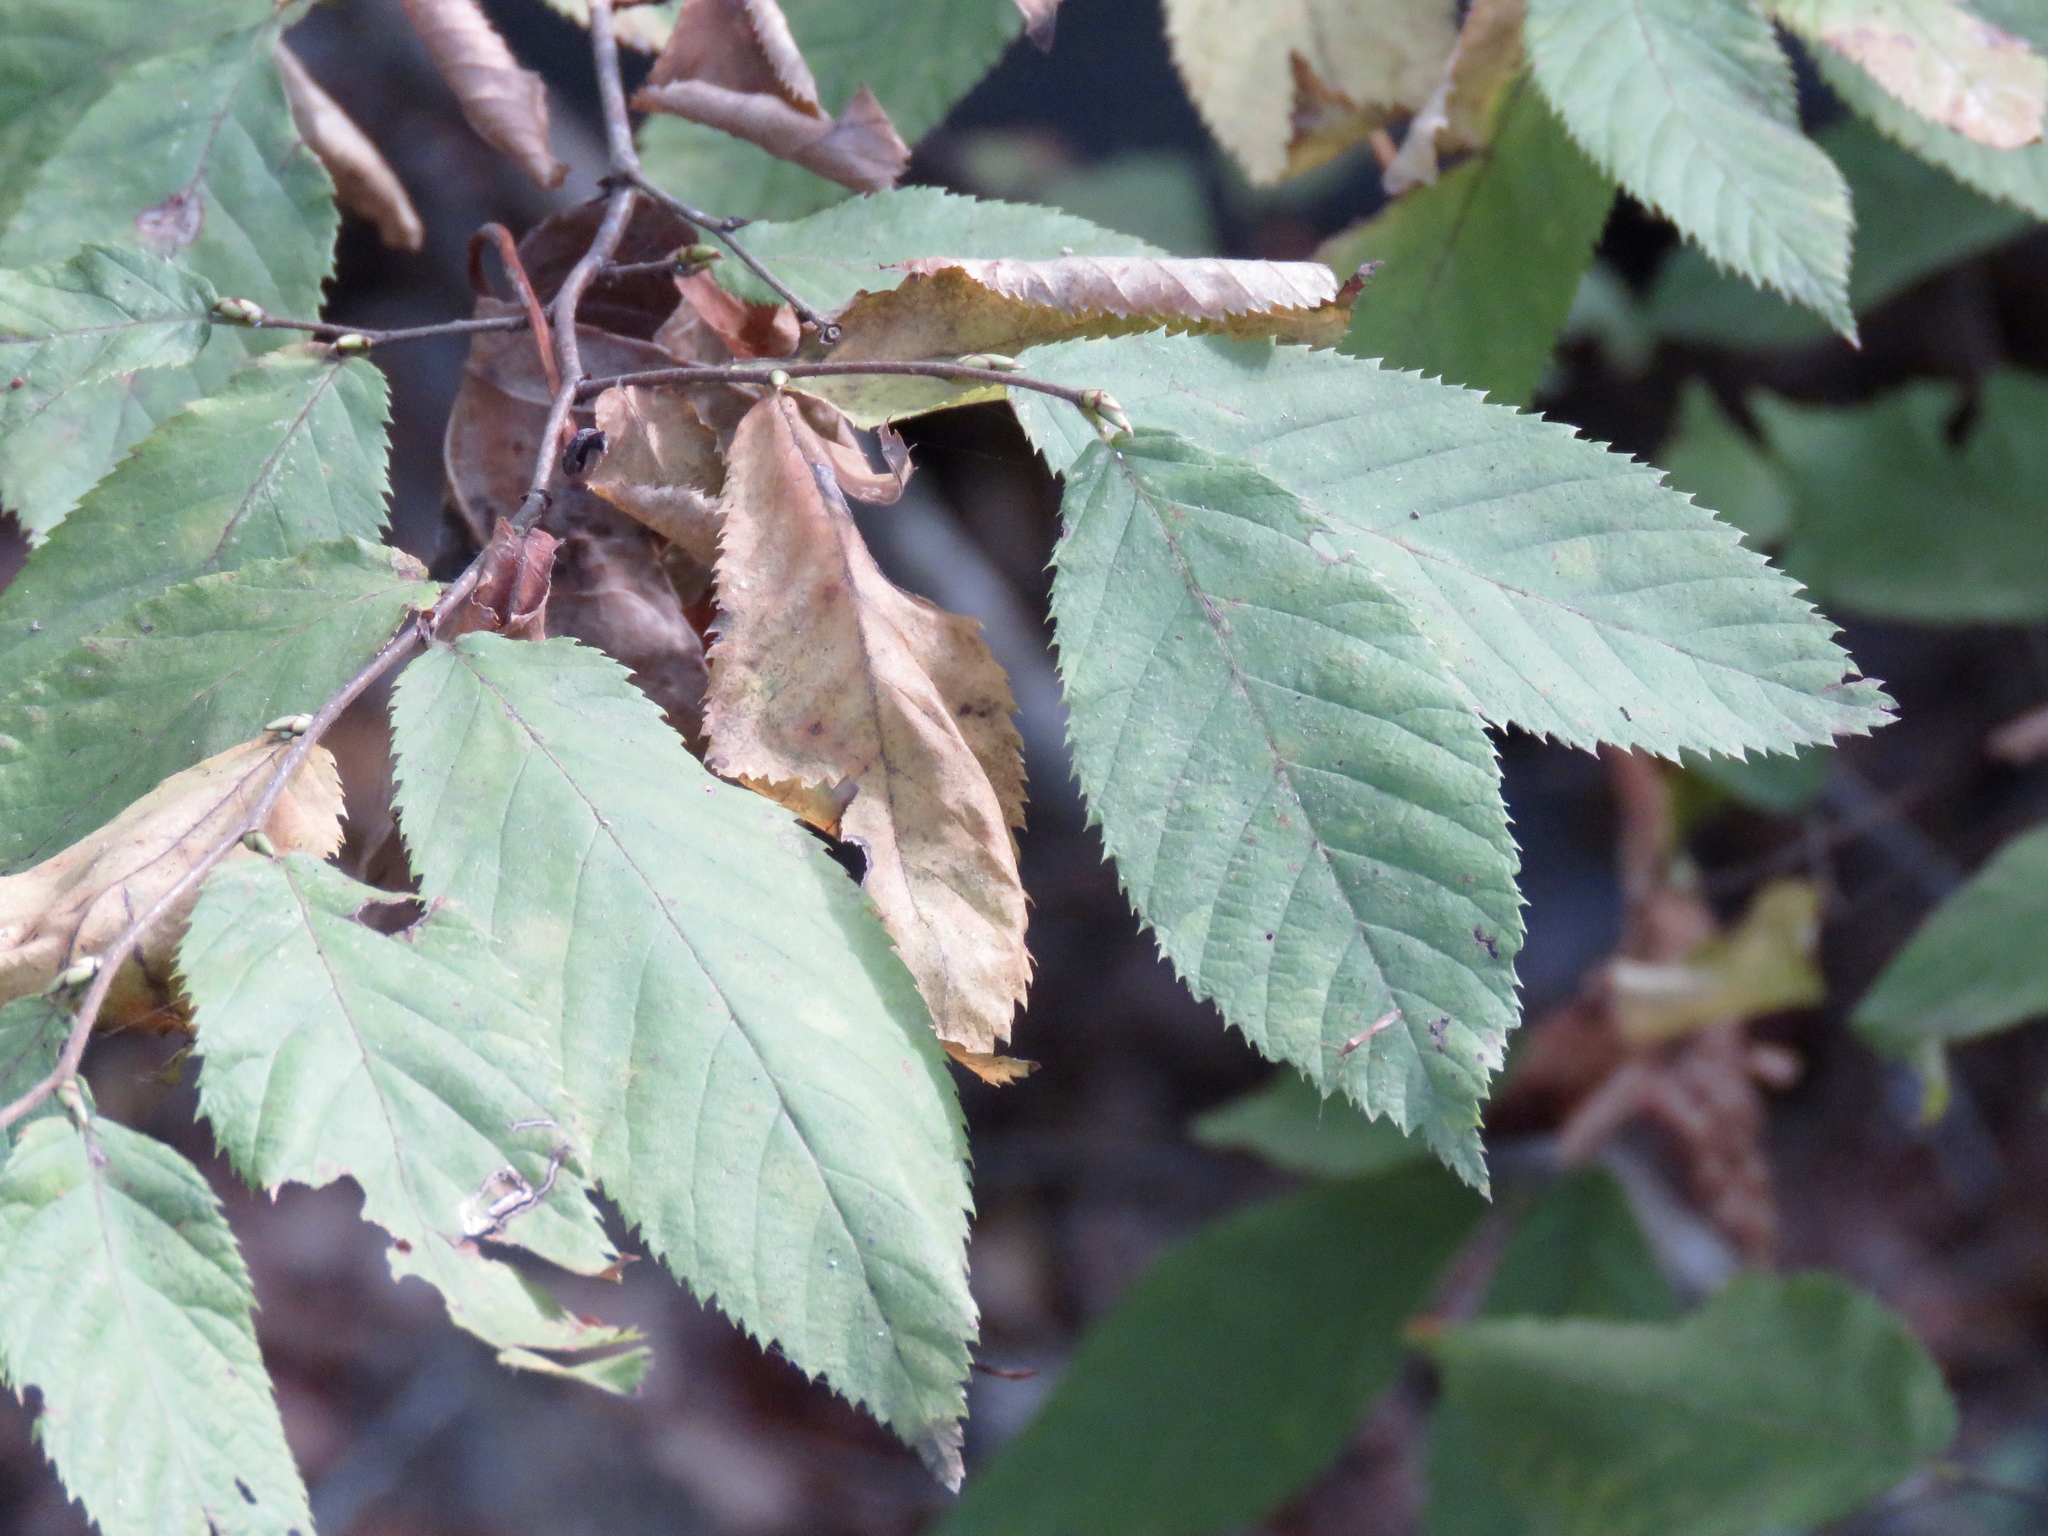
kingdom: Plantae
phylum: Tracheophyta
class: Magnoliopsida
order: Fagales
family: Betulaceae
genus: Ostrya
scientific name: Ostrya virginiana
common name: Ironwood
